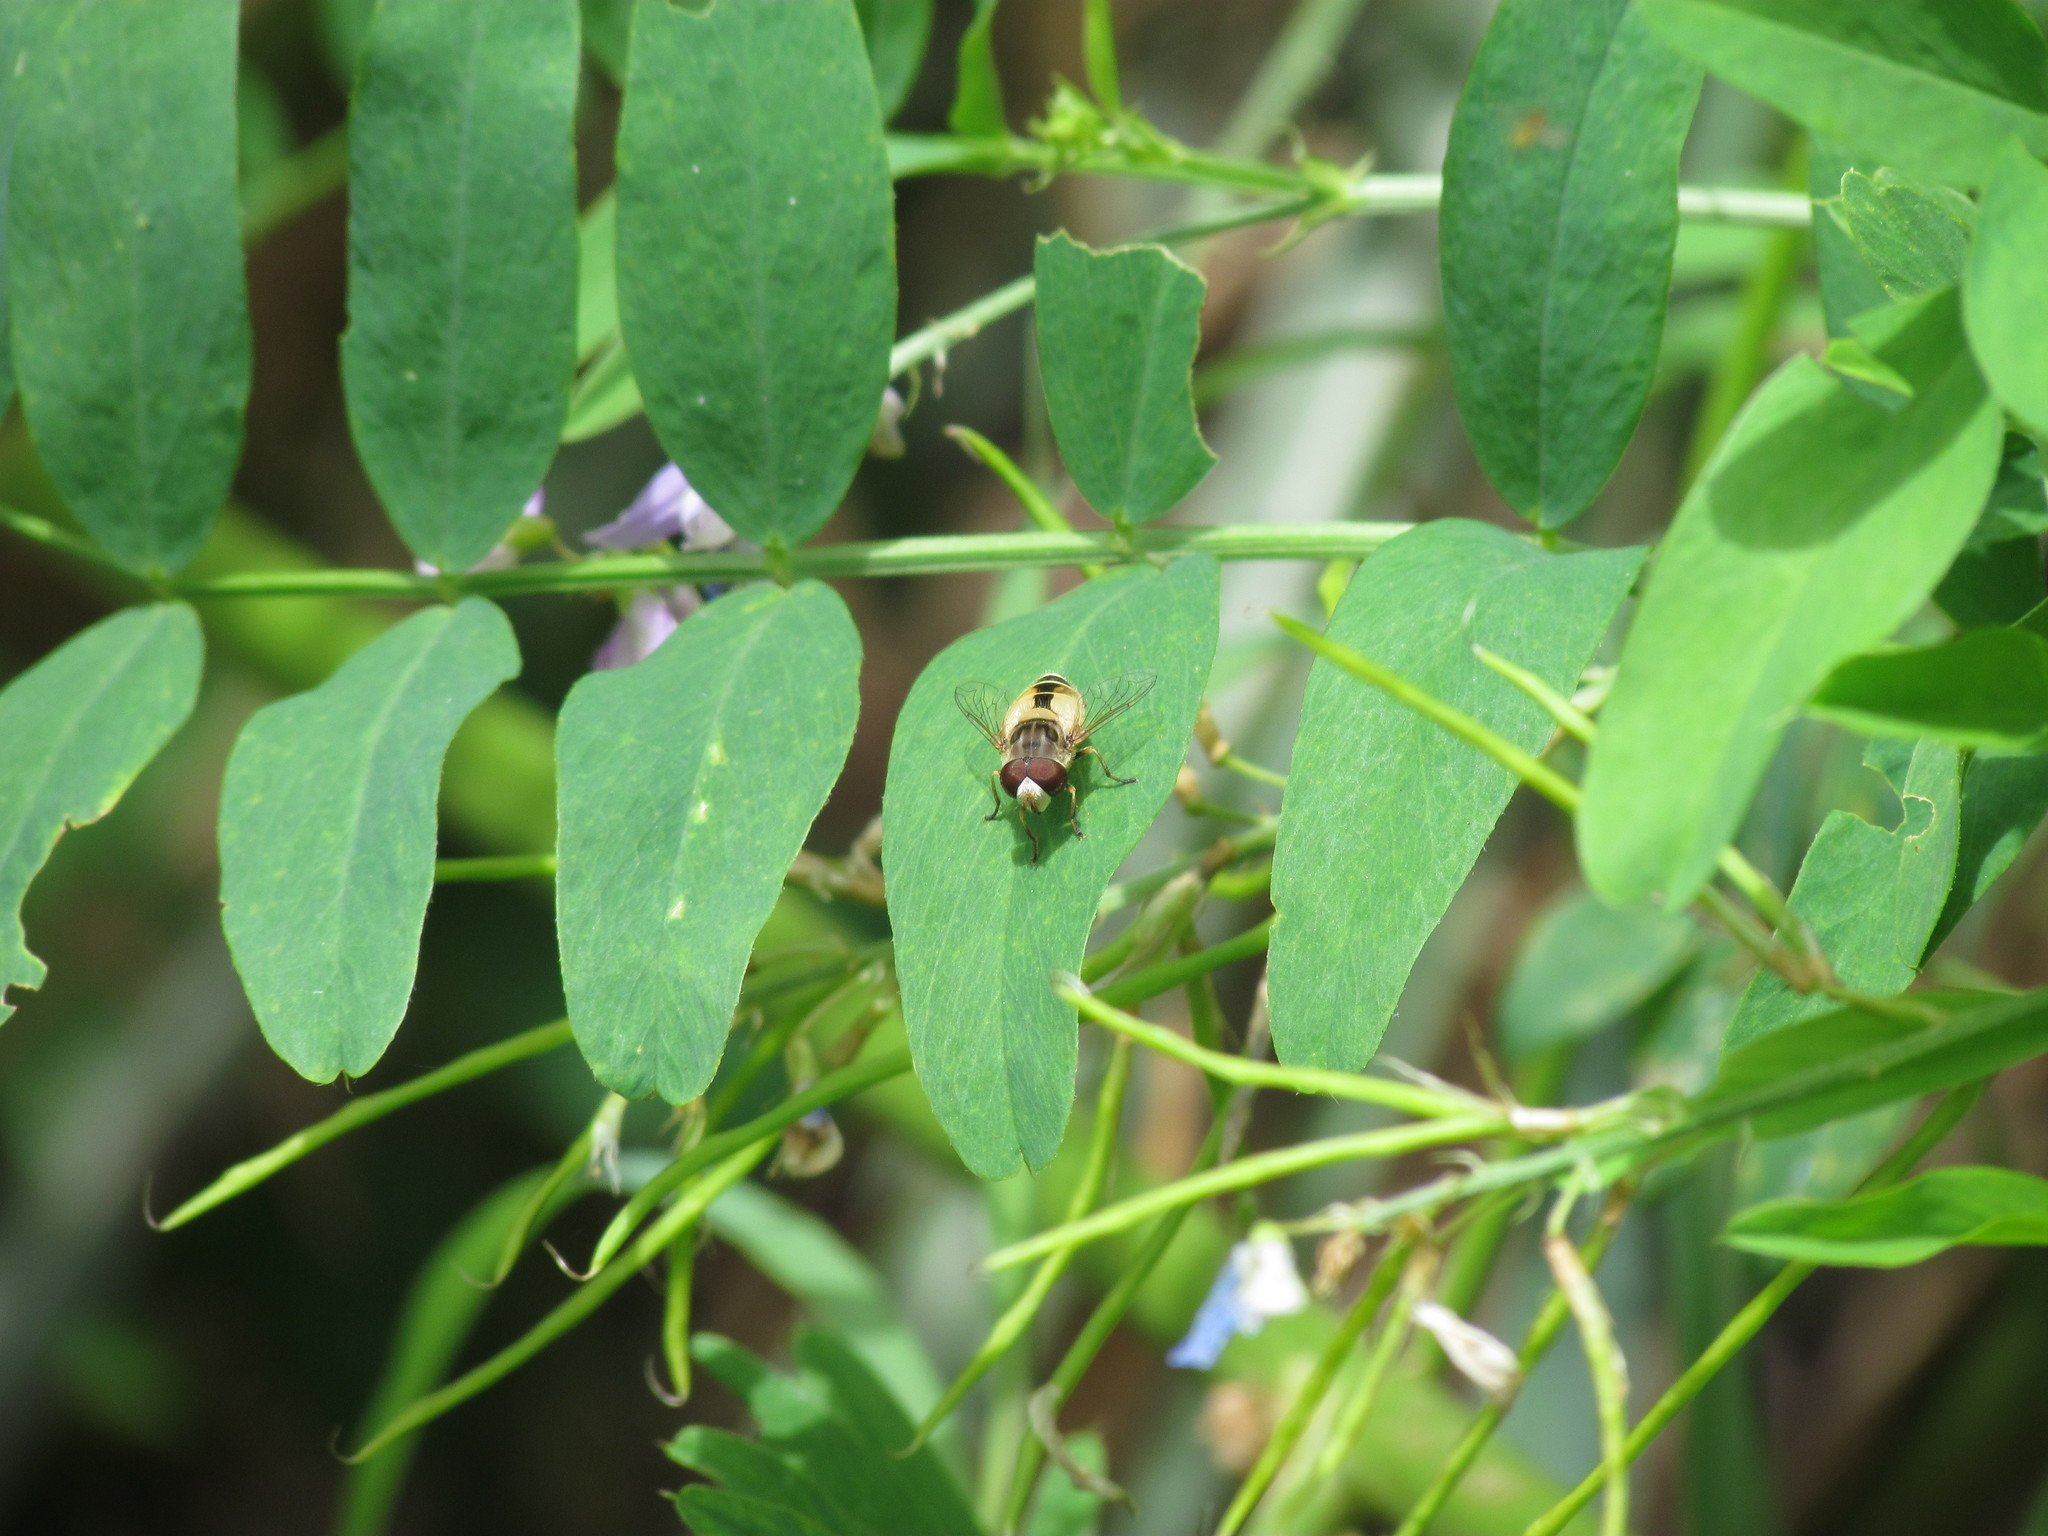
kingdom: Animalia
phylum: Arthropoda
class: Insecta
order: Diptera
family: Syrphidae
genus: Palpada
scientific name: Palpada
